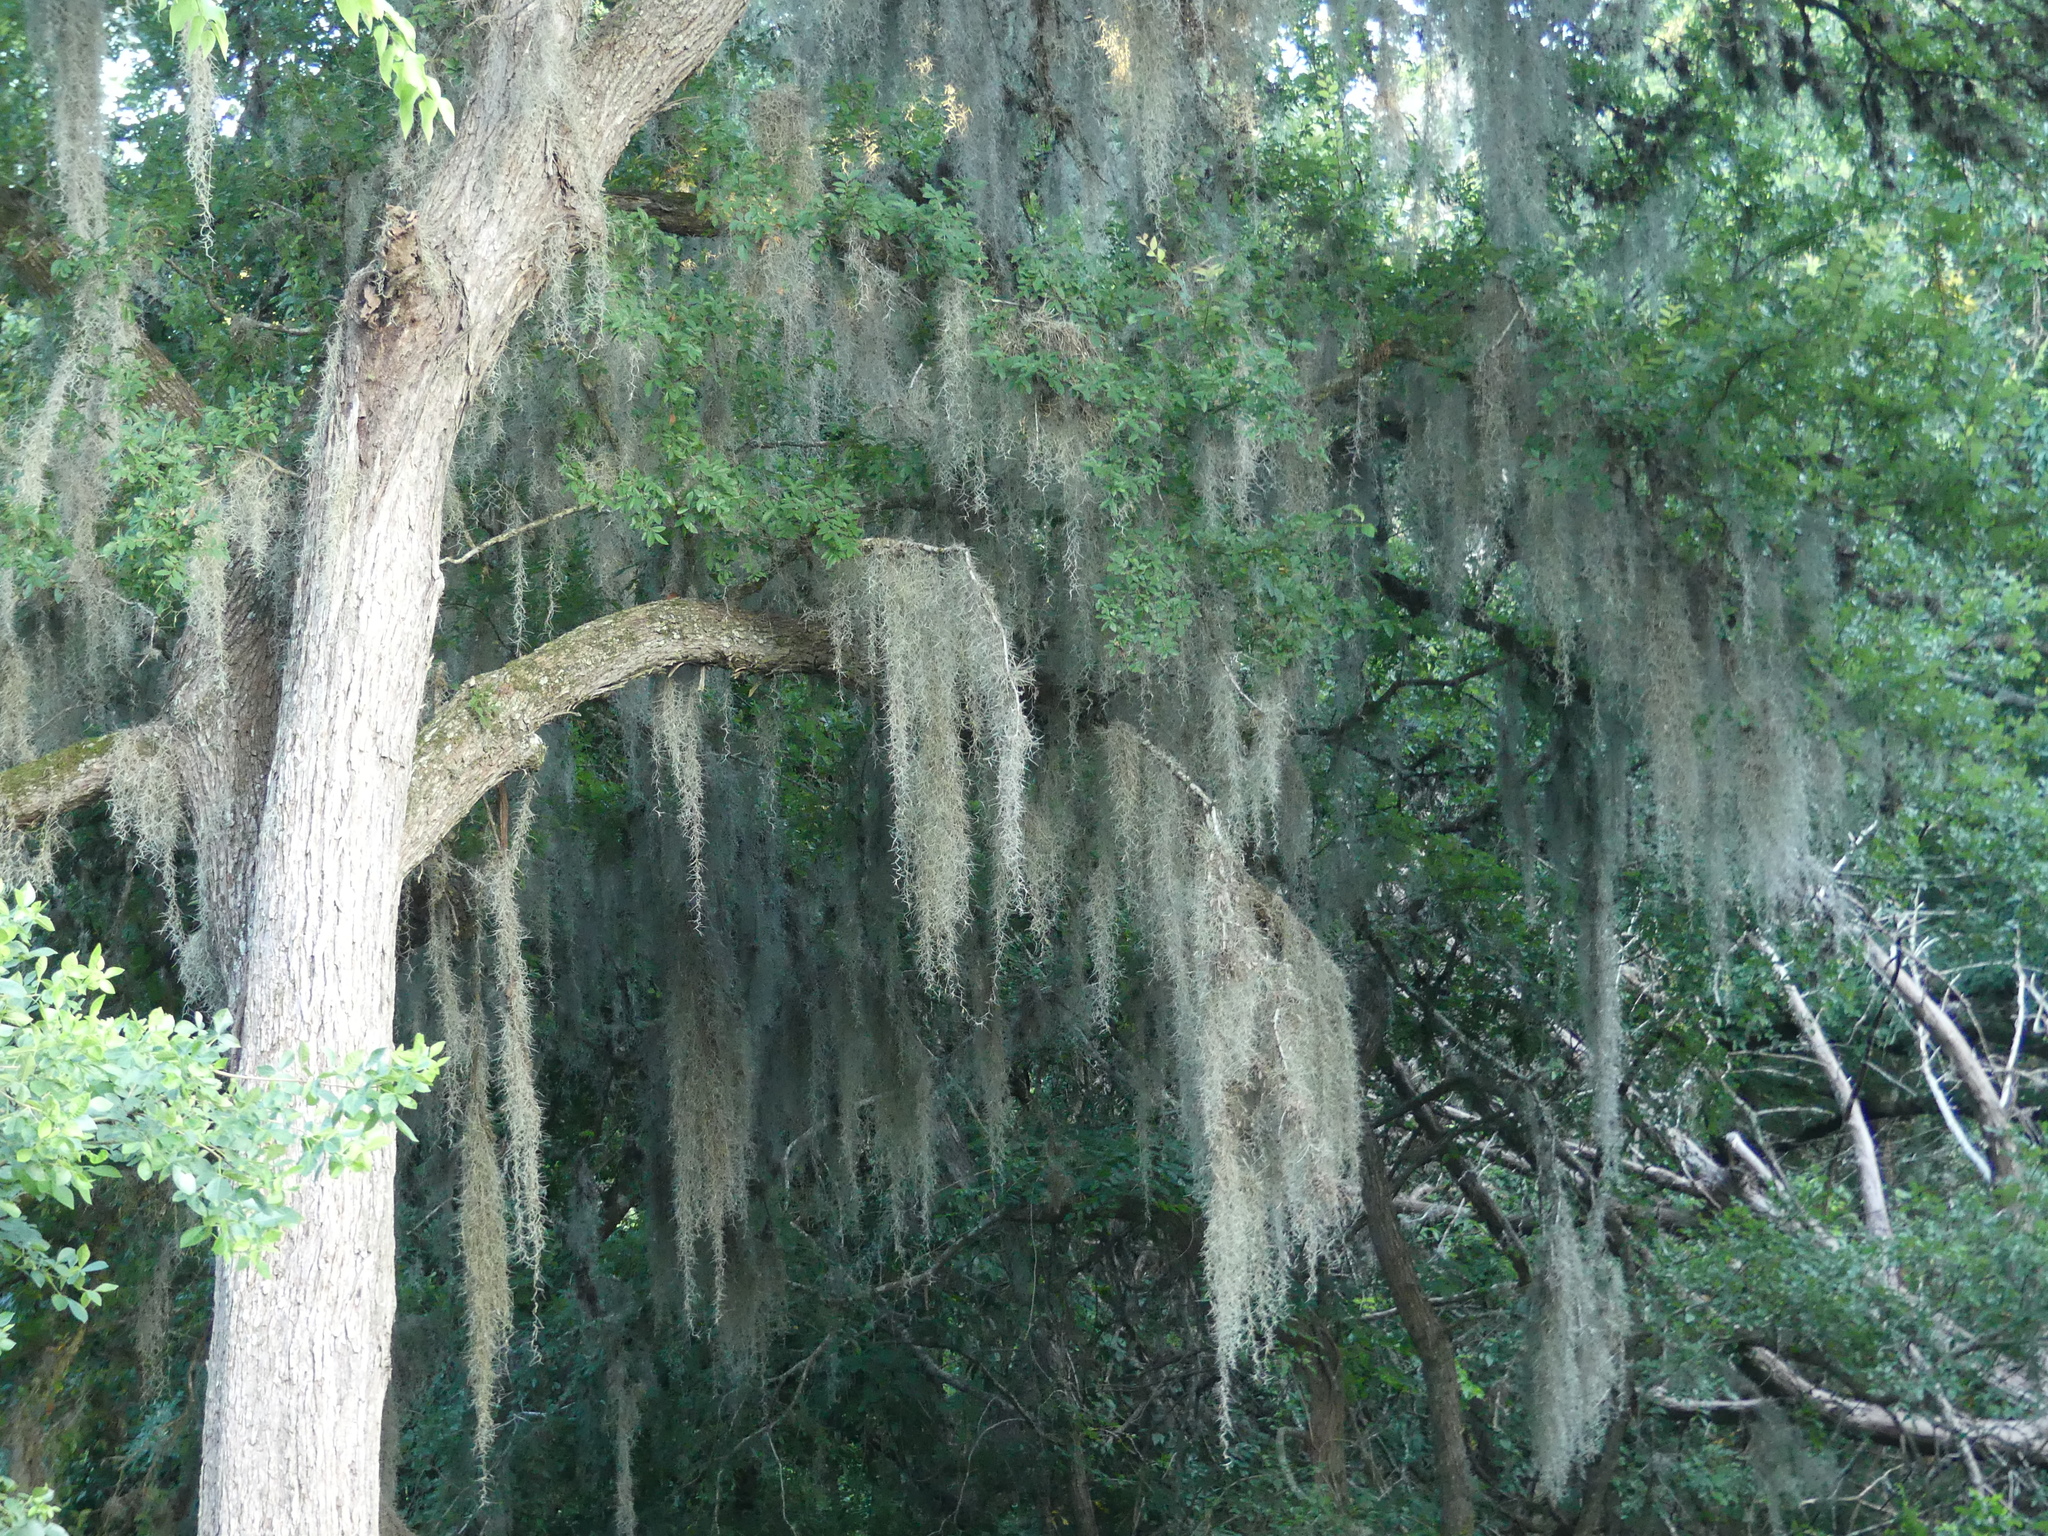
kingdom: Plantae
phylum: Tracheophyta
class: Liliopsida
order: Poales
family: Bromeliaceae
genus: Tillandsia
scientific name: Tillandsia usneoides
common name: Spanish moss
